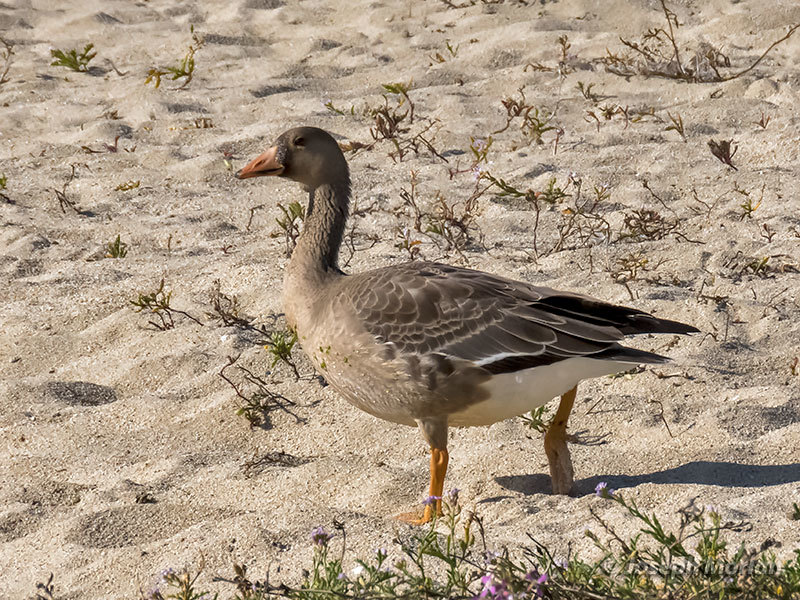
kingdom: Animalia
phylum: Chordata
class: Aves
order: Anseriformes
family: Anatidae
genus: Anser
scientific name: Anser albifrons
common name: Greater white-fronted goose
